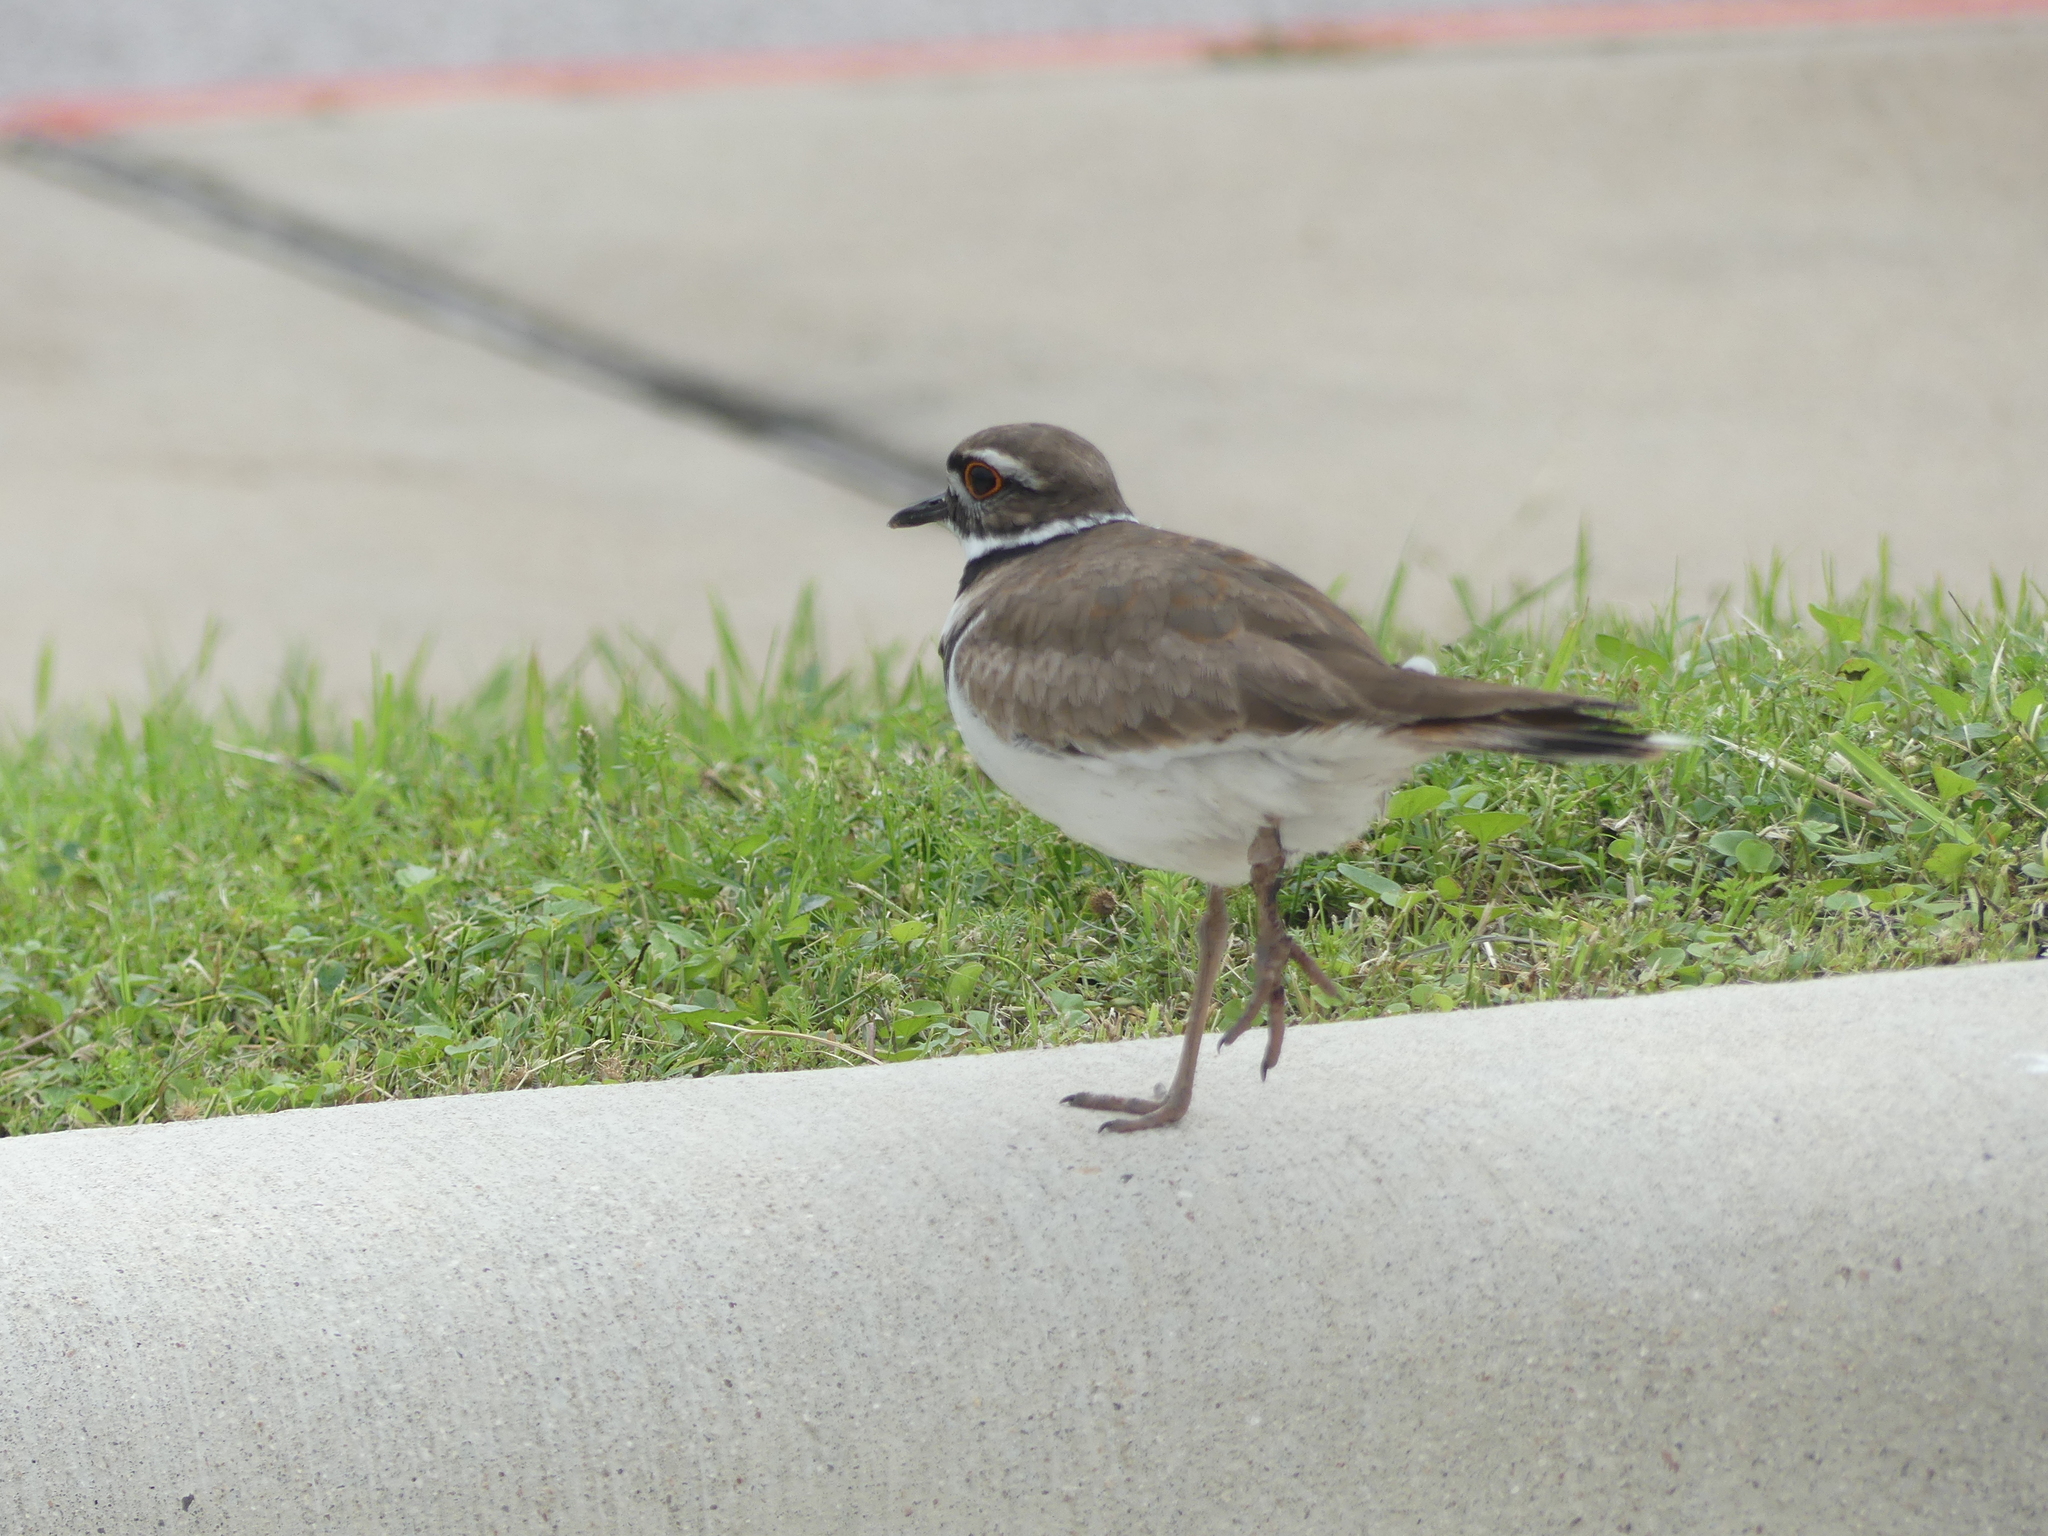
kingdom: Animalia
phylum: Chordata
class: Aves
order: Charadriiformes
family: Charadriidae
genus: Charadrius
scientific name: Charadrius vociferus
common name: Killdeer
